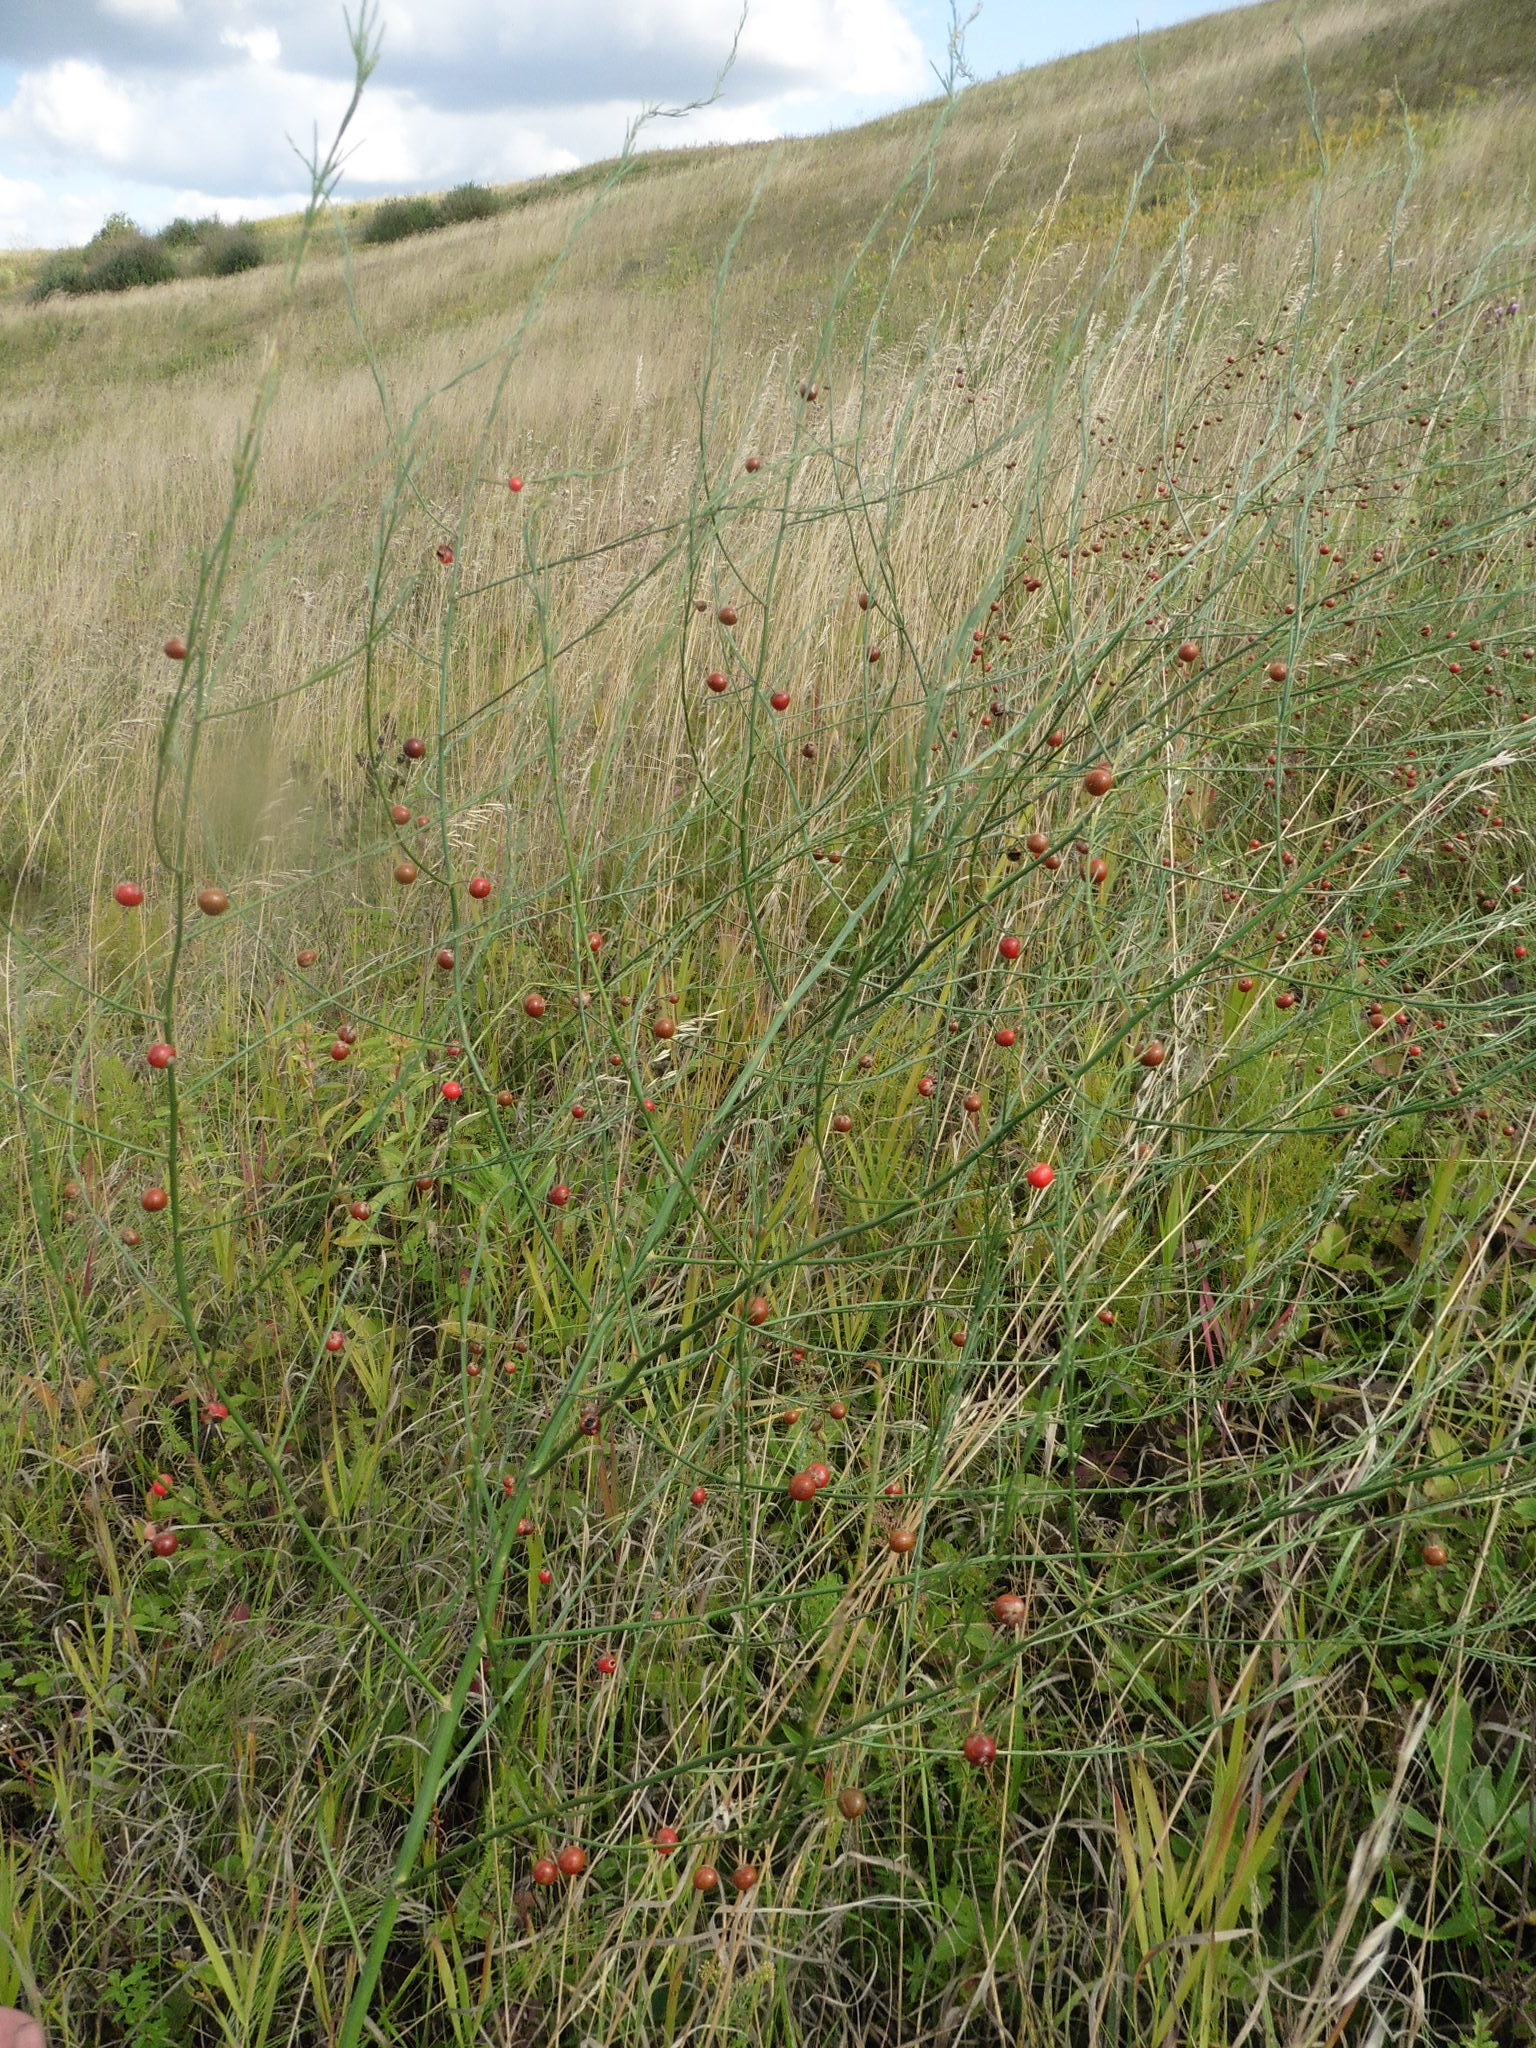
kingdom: Plantae
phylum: Tracheophyta
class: Liliopsida
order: Asparagales
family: Asparagaceae
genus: Asparagus
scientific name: Asparagus officinalis
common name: Garden asparagus
